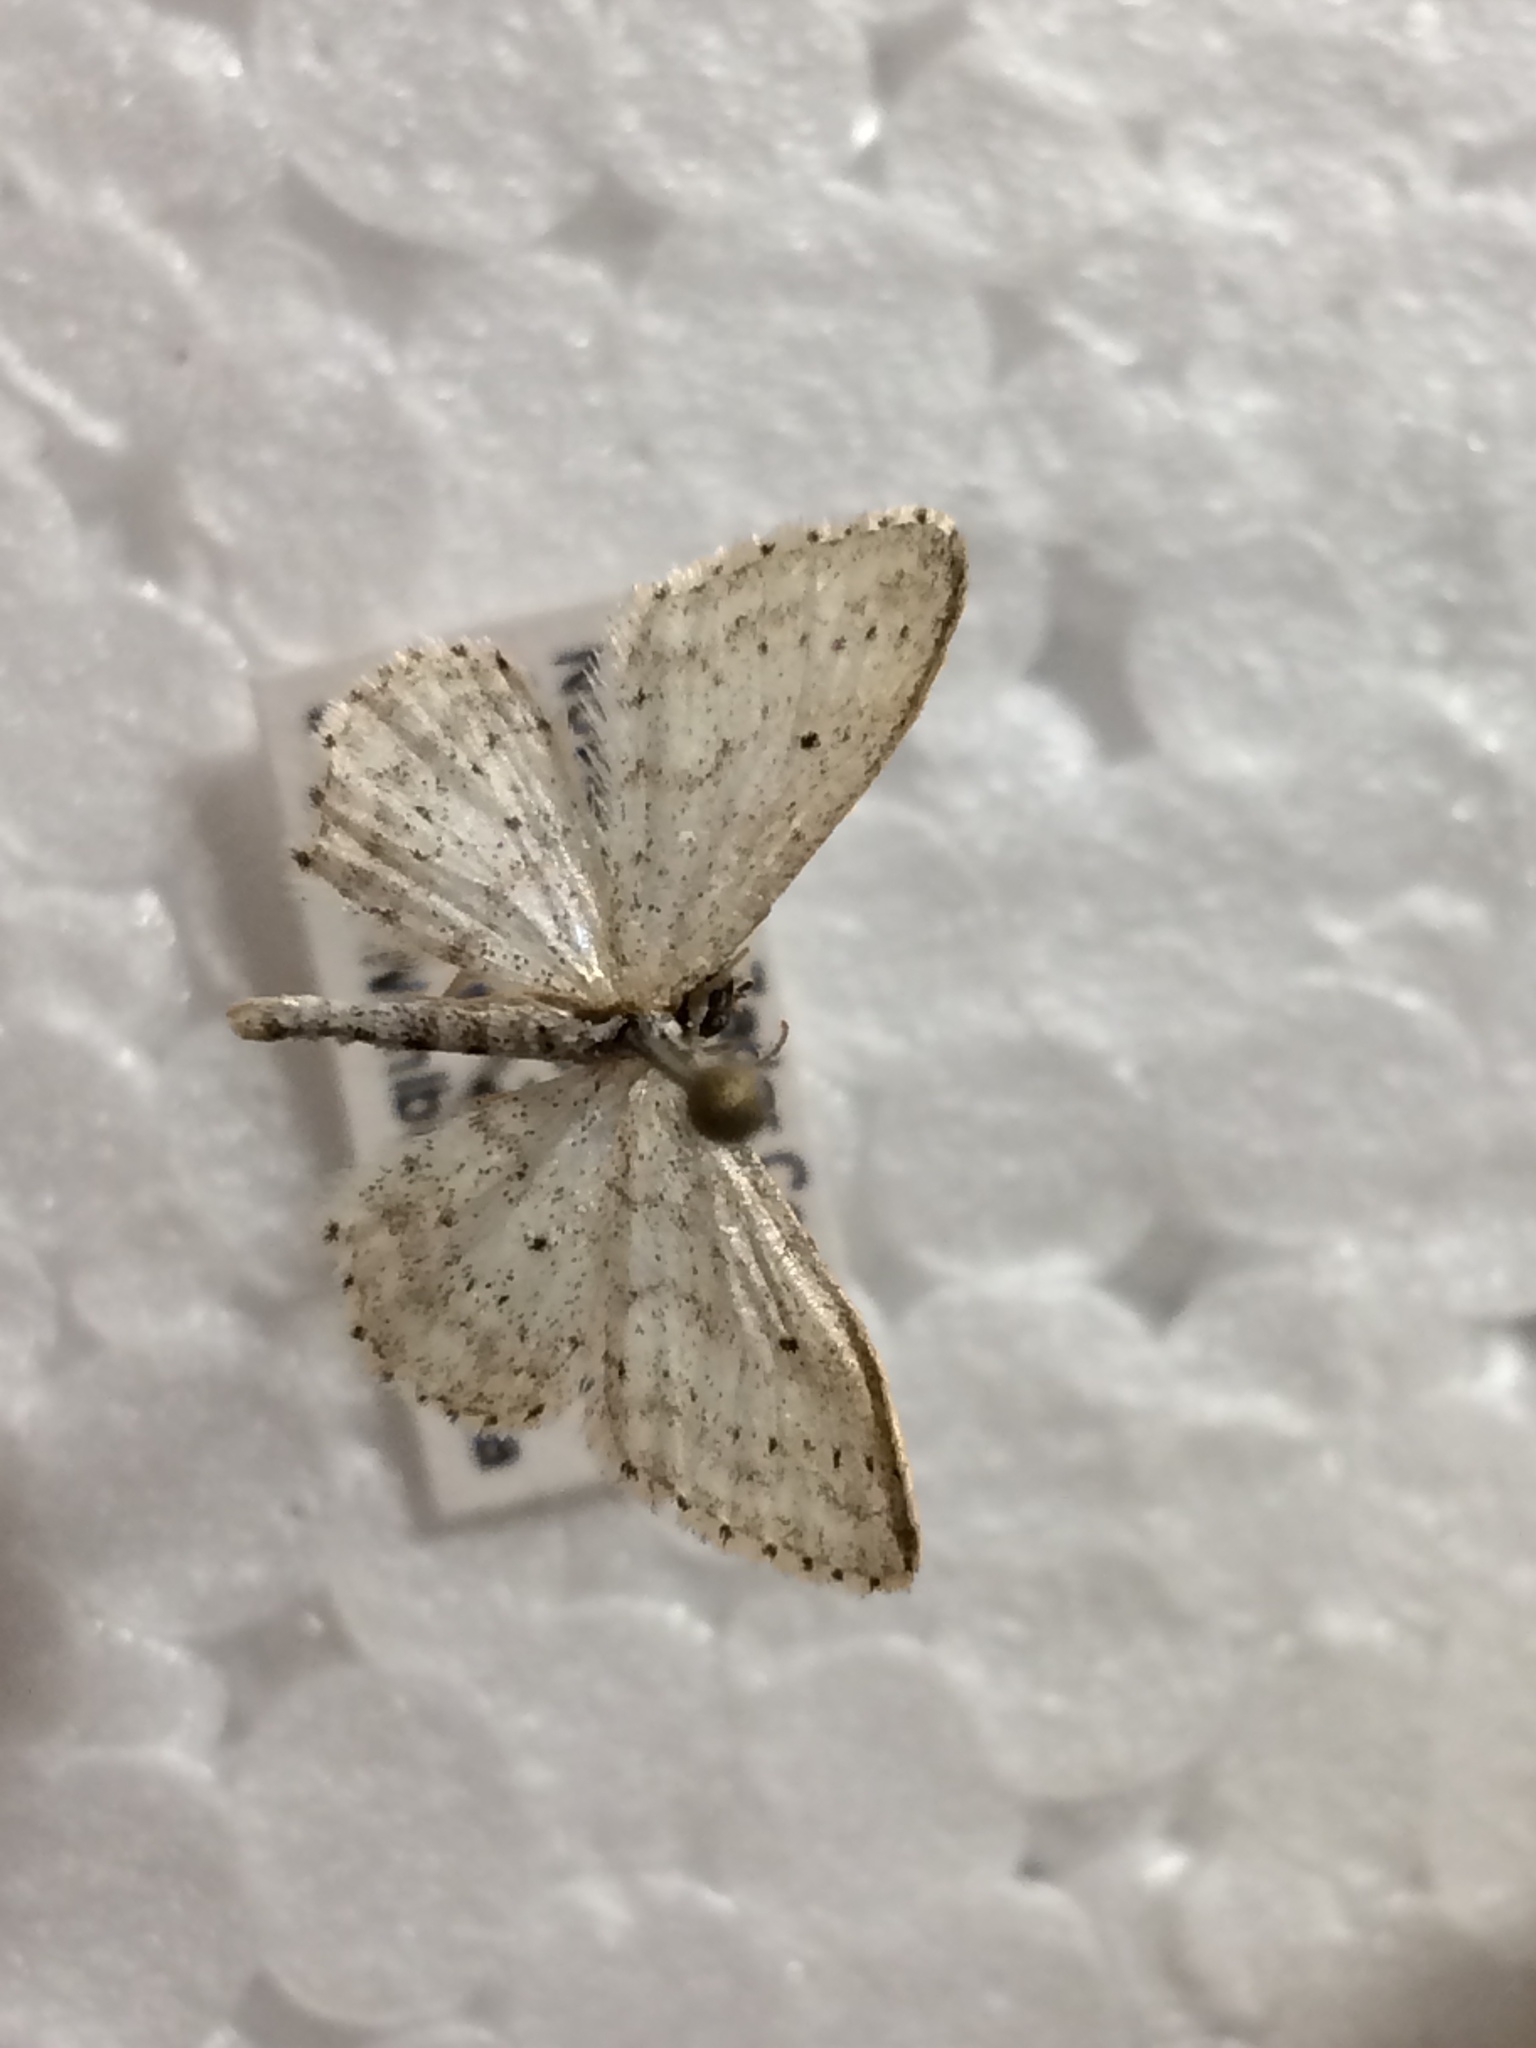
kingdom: Animalia
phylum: Arthropoda
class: Insecta
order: Lepidoptera
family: Geometridae
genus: Idaea
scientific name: Idaea seriata
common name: Small dusty wave
